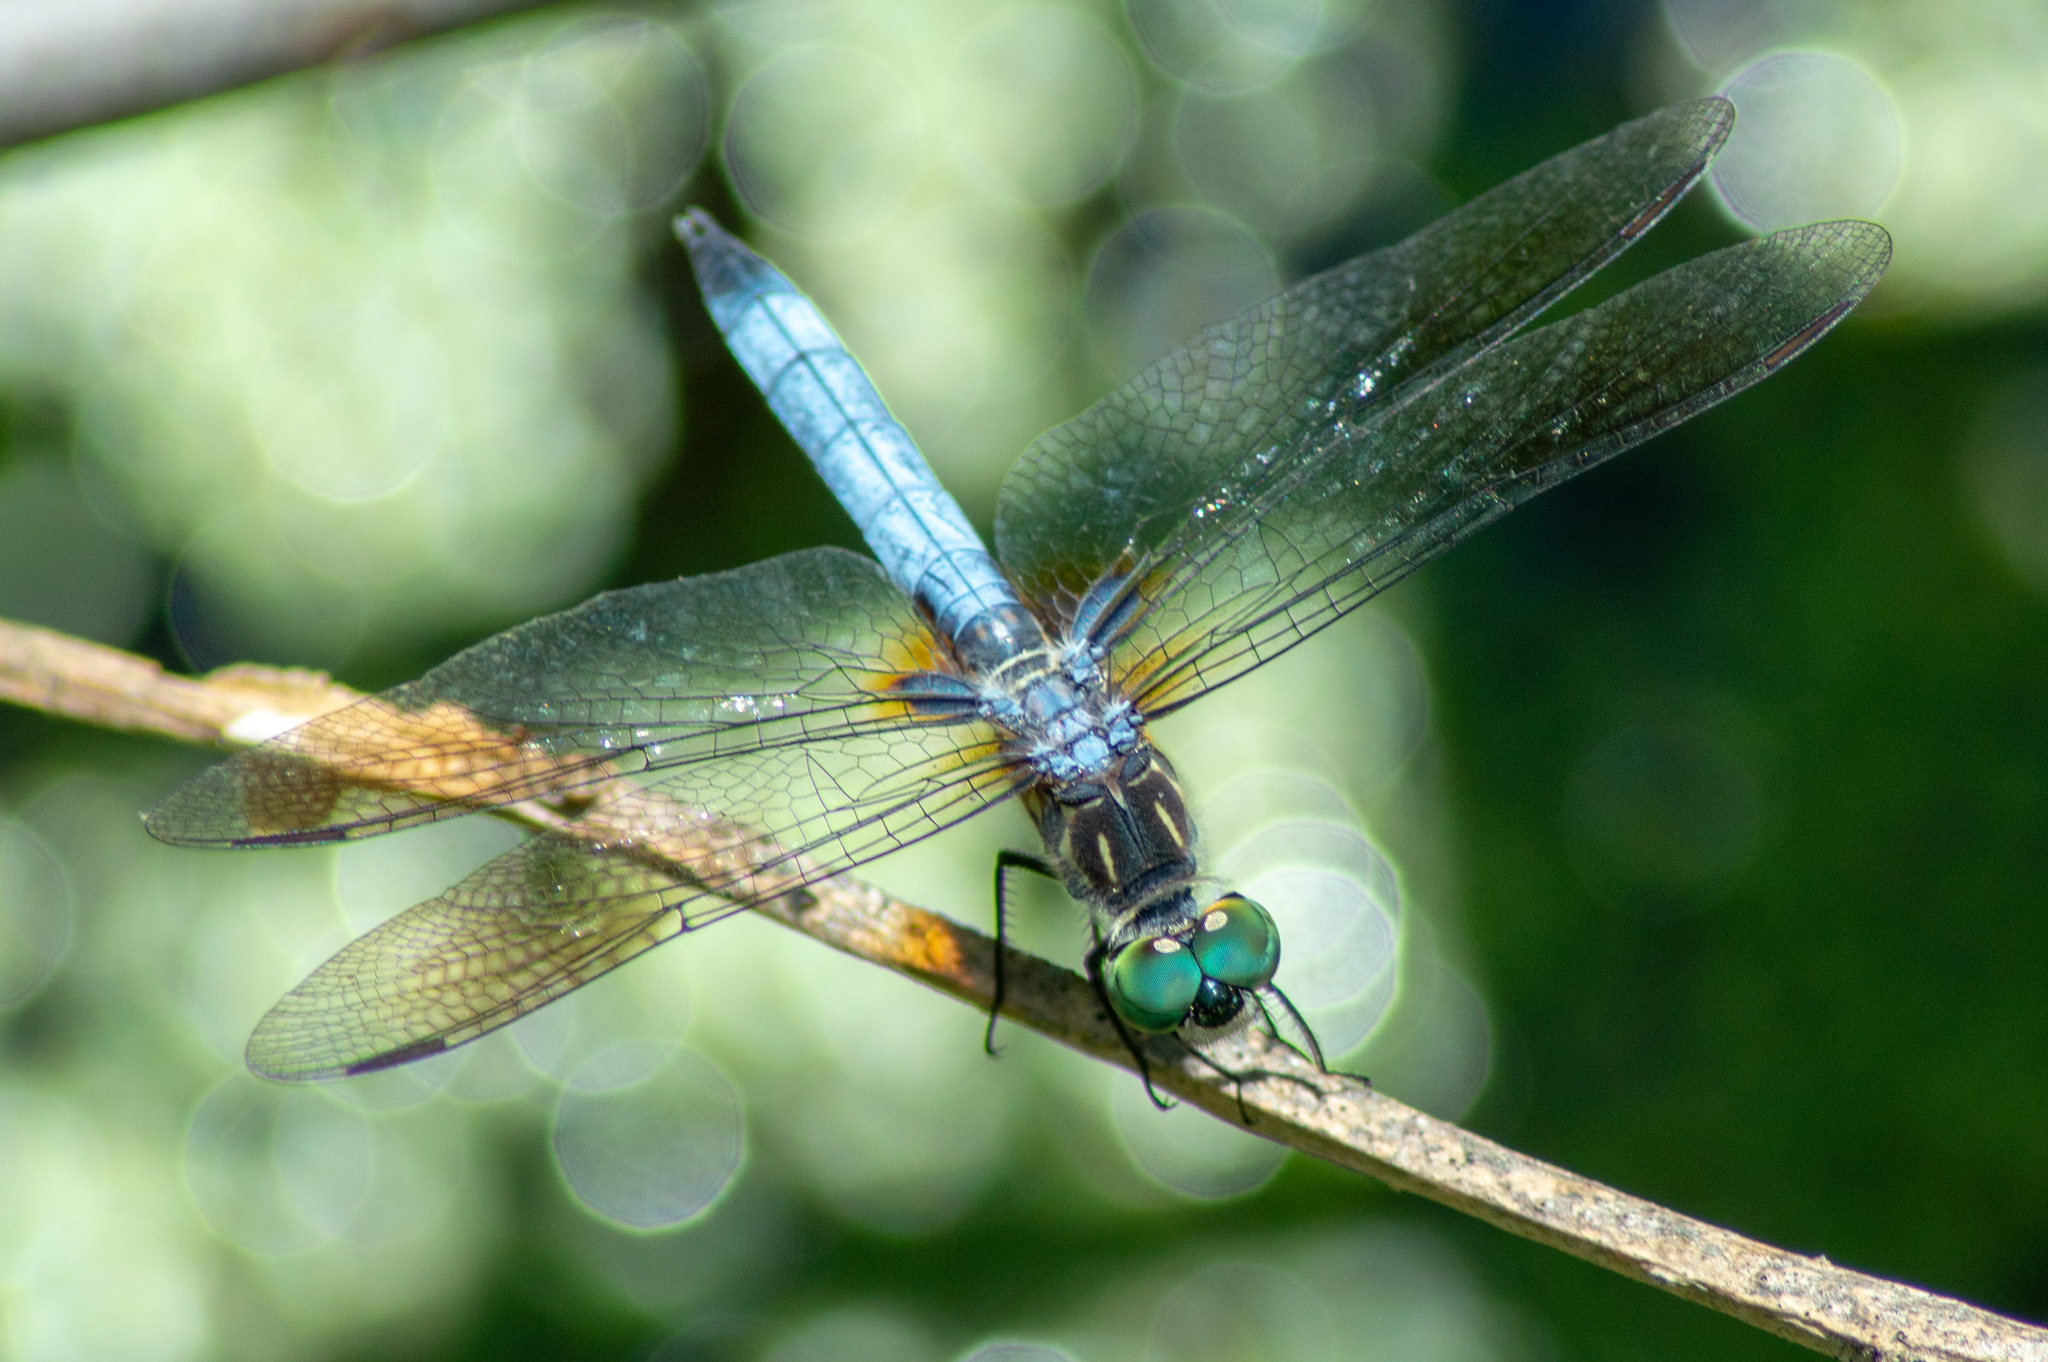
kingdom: Animalia
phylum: Arthropoda
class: Insecta
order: Odonata
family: Libellulidae
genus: Pachydiplax
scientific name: Pachydiplax longipennis
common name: Blue dasher
